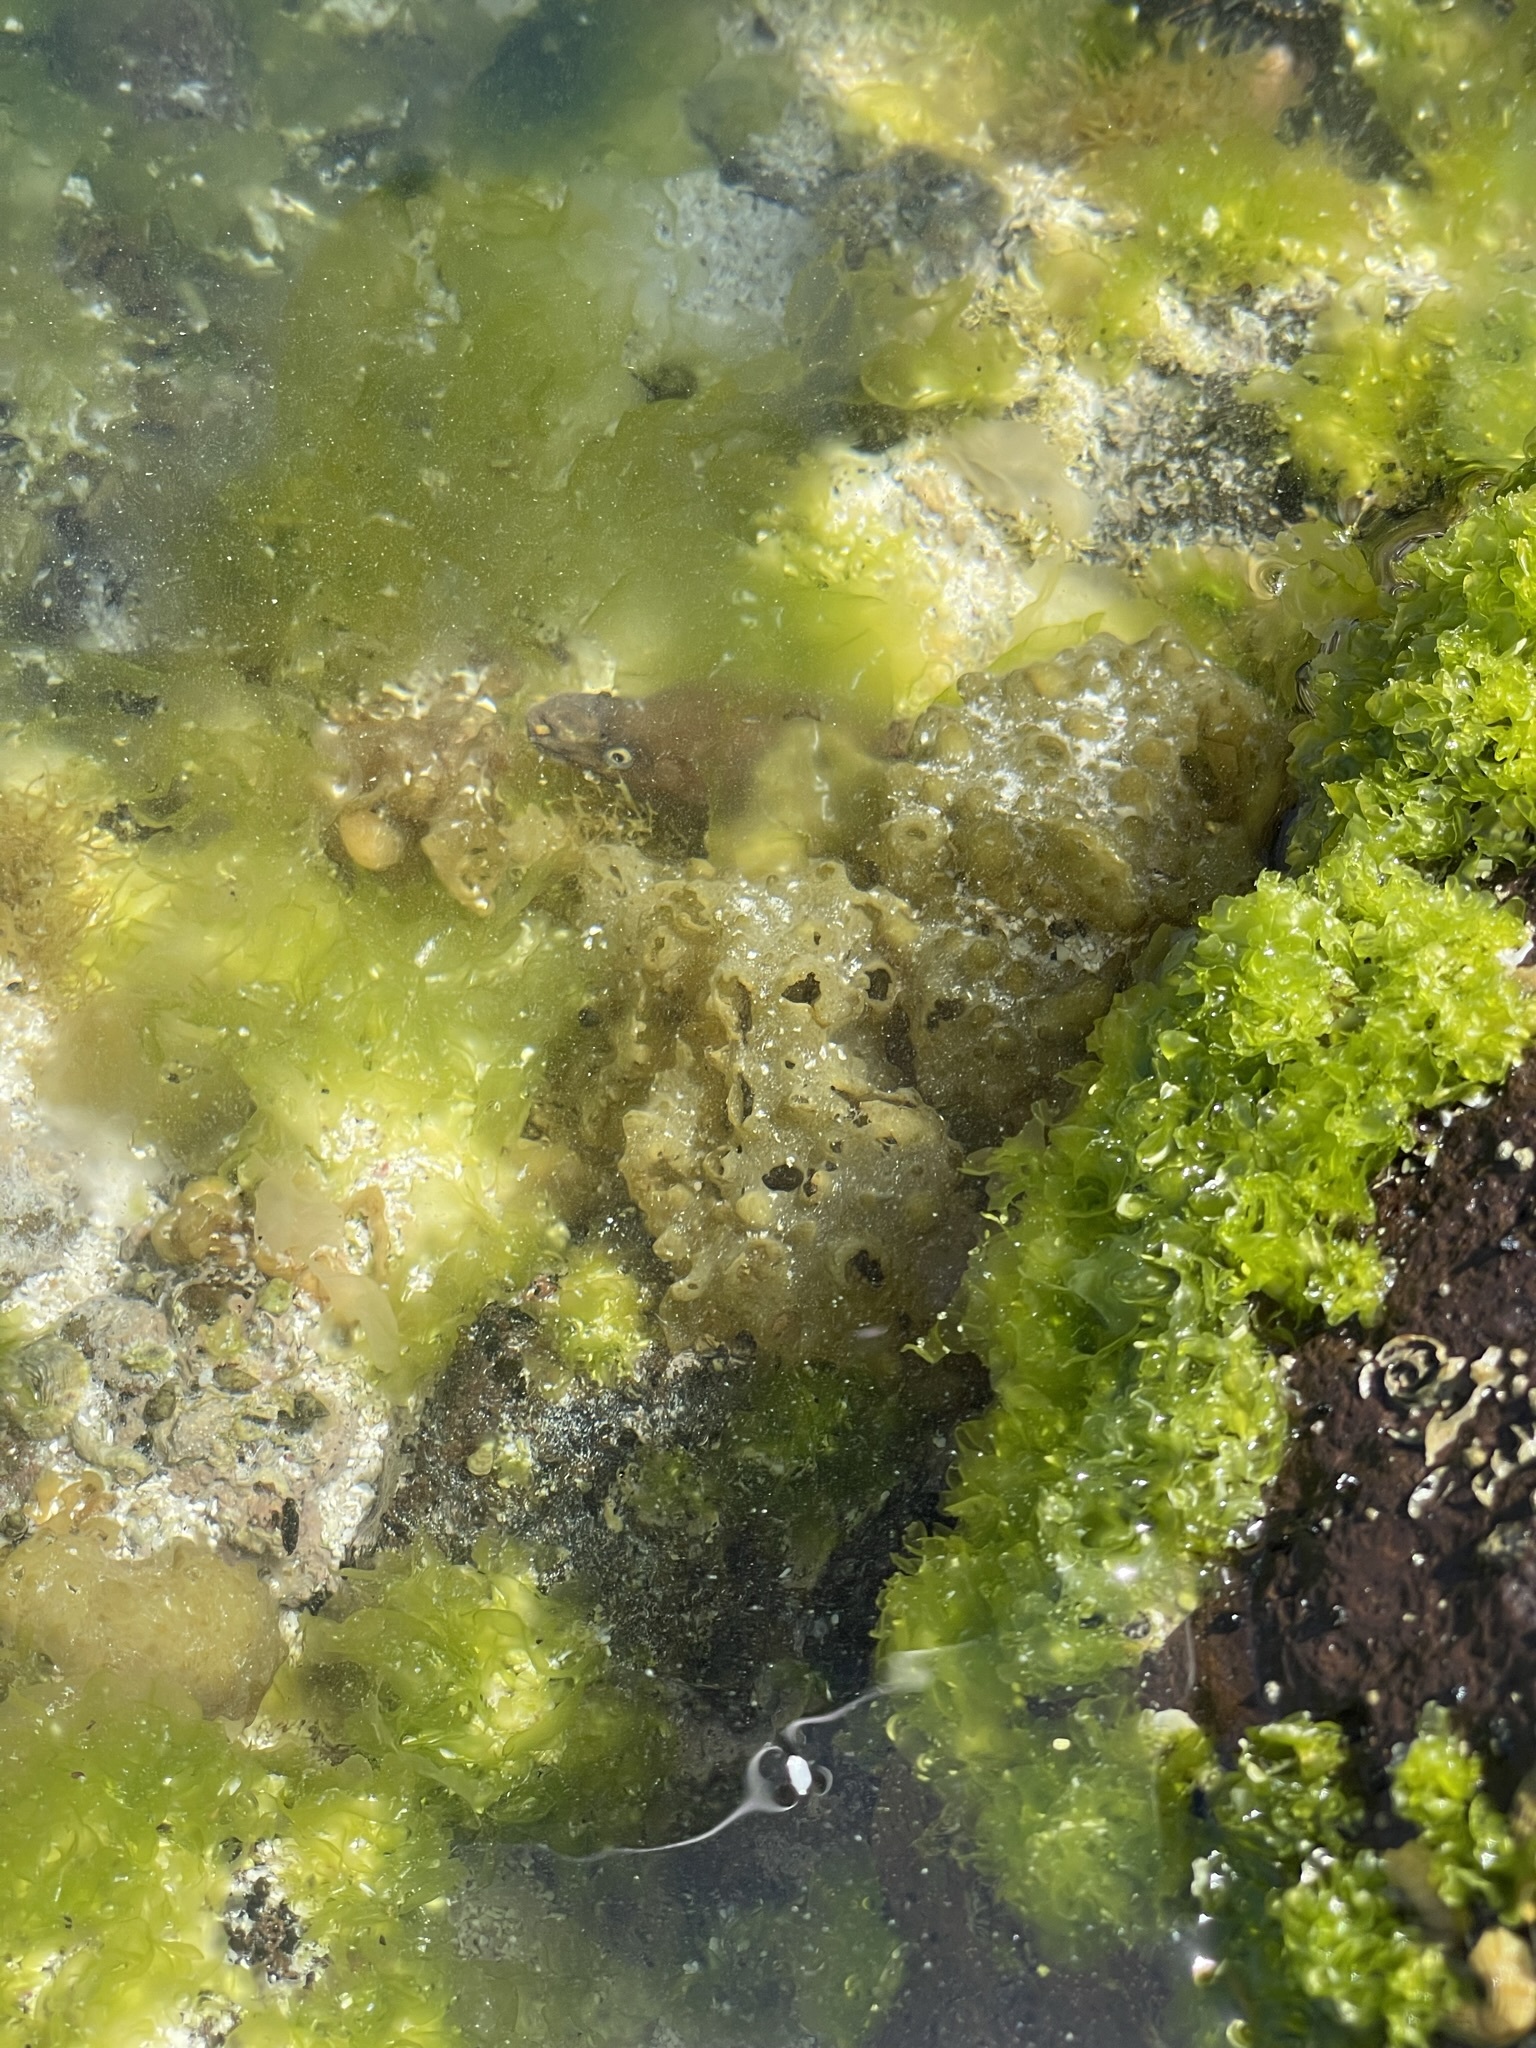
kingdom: Chromista
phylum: Ochrophyta
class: Phaeophyceae
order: Scytosiphonales
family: Scytosiphonaceae
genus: Colpomenia
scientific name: Colpomenia
